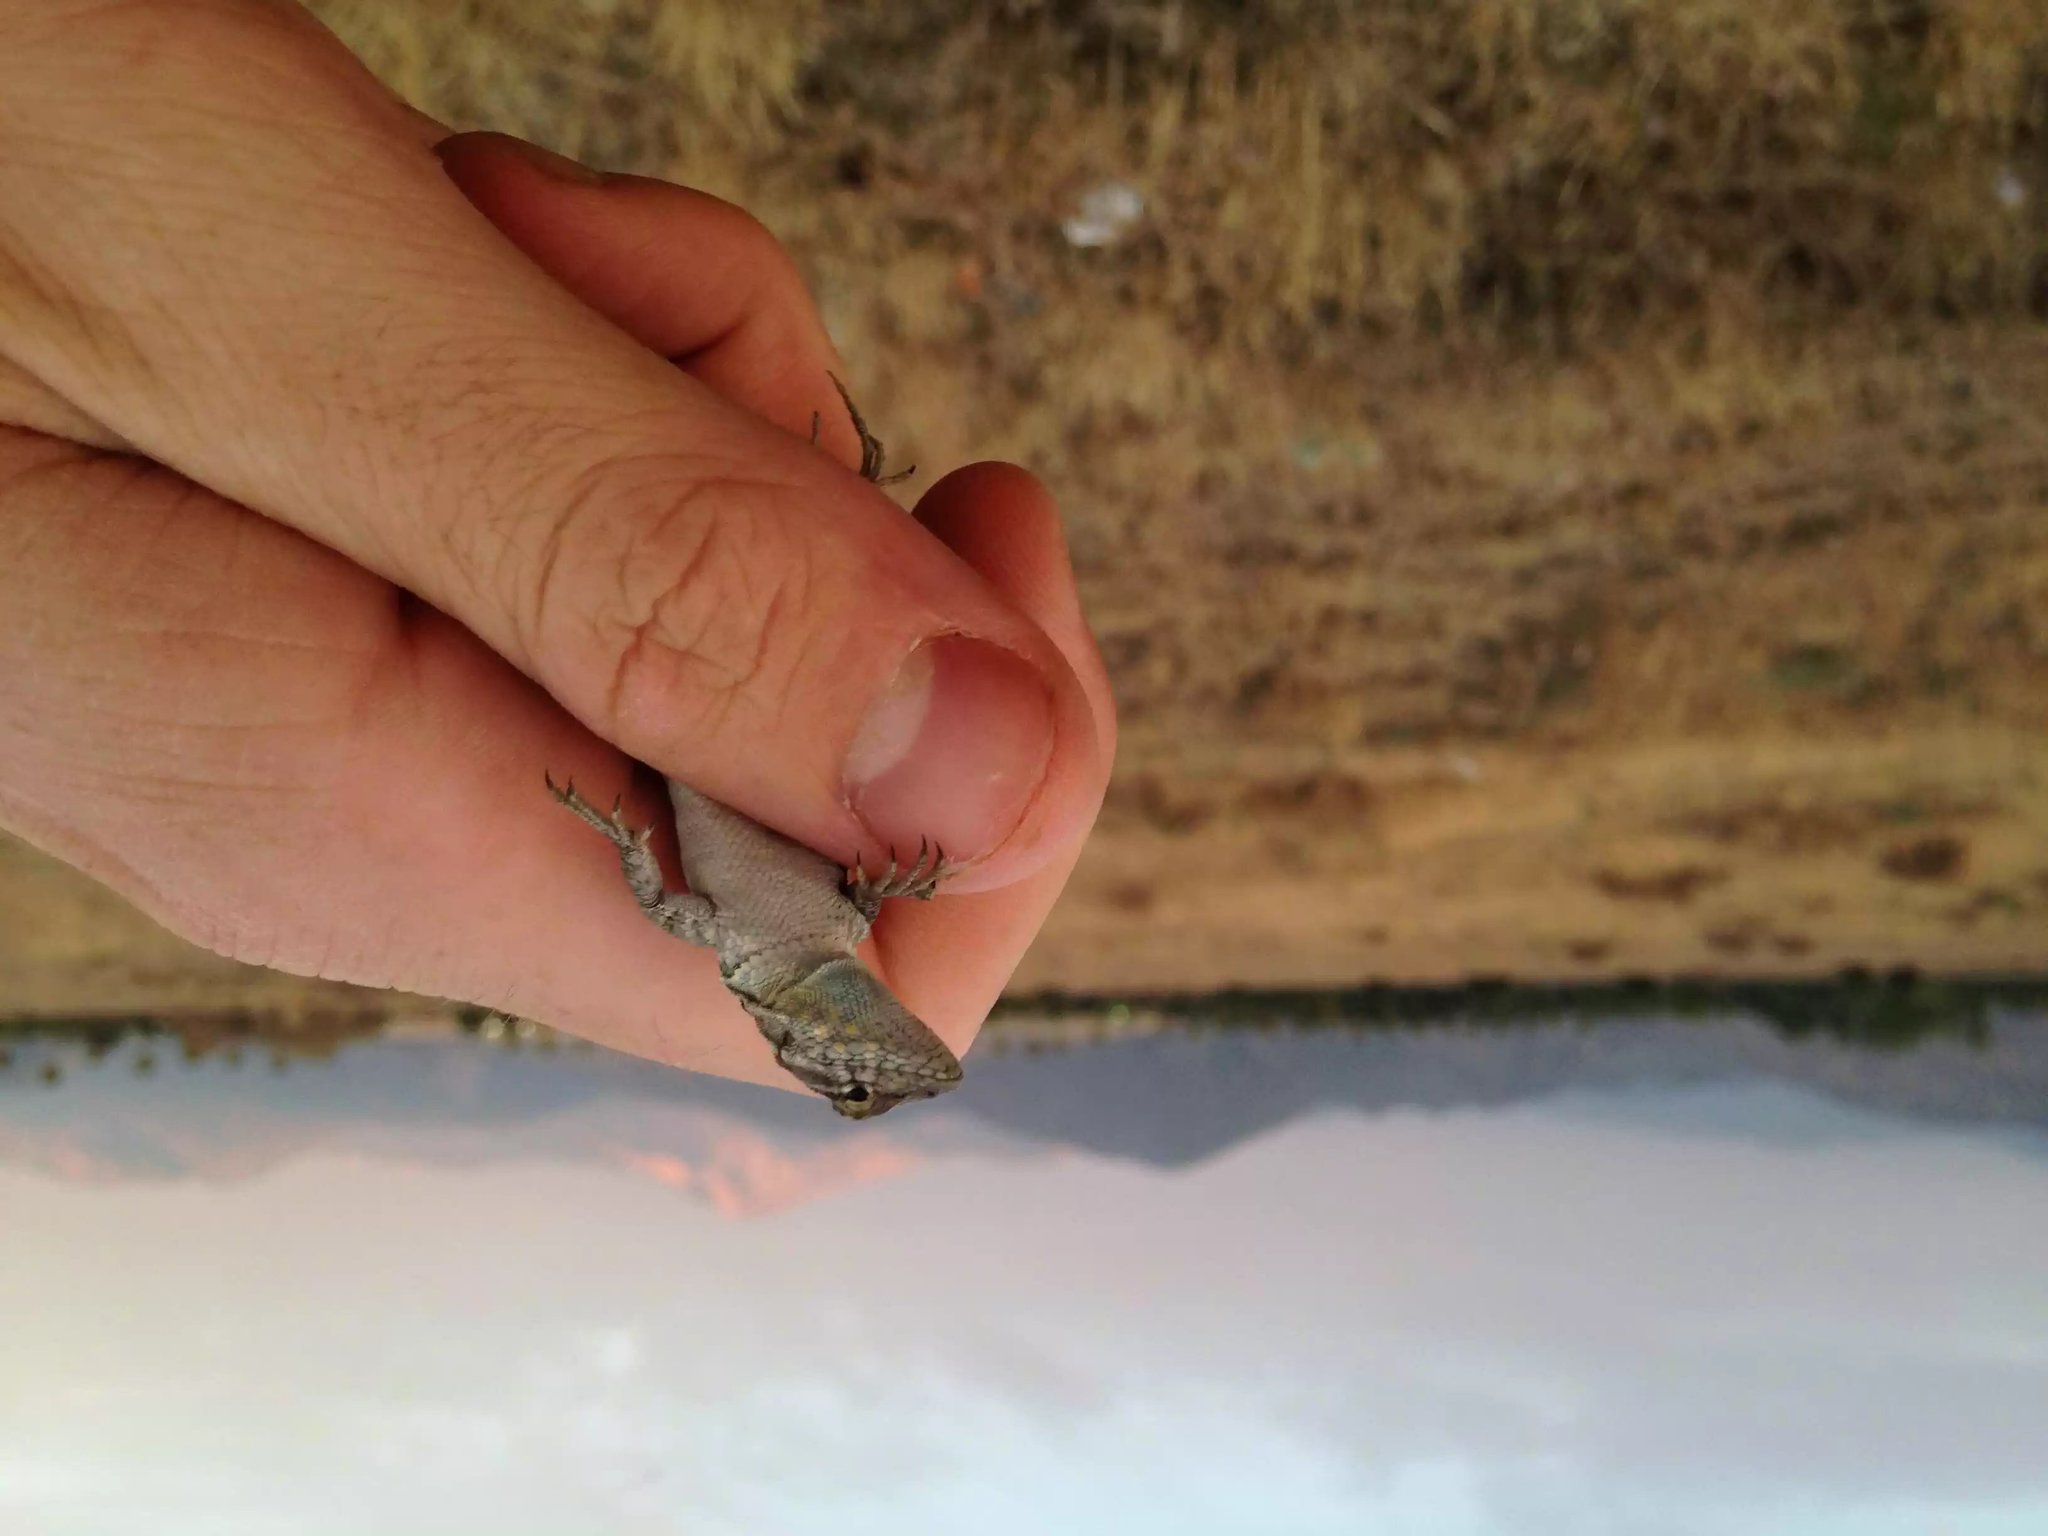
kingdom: Animalia
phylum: Chordata
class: Squamata
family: Phrynosomatidae
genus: Uta
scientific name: Uta stansburiana
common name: Side-blotched lizard
